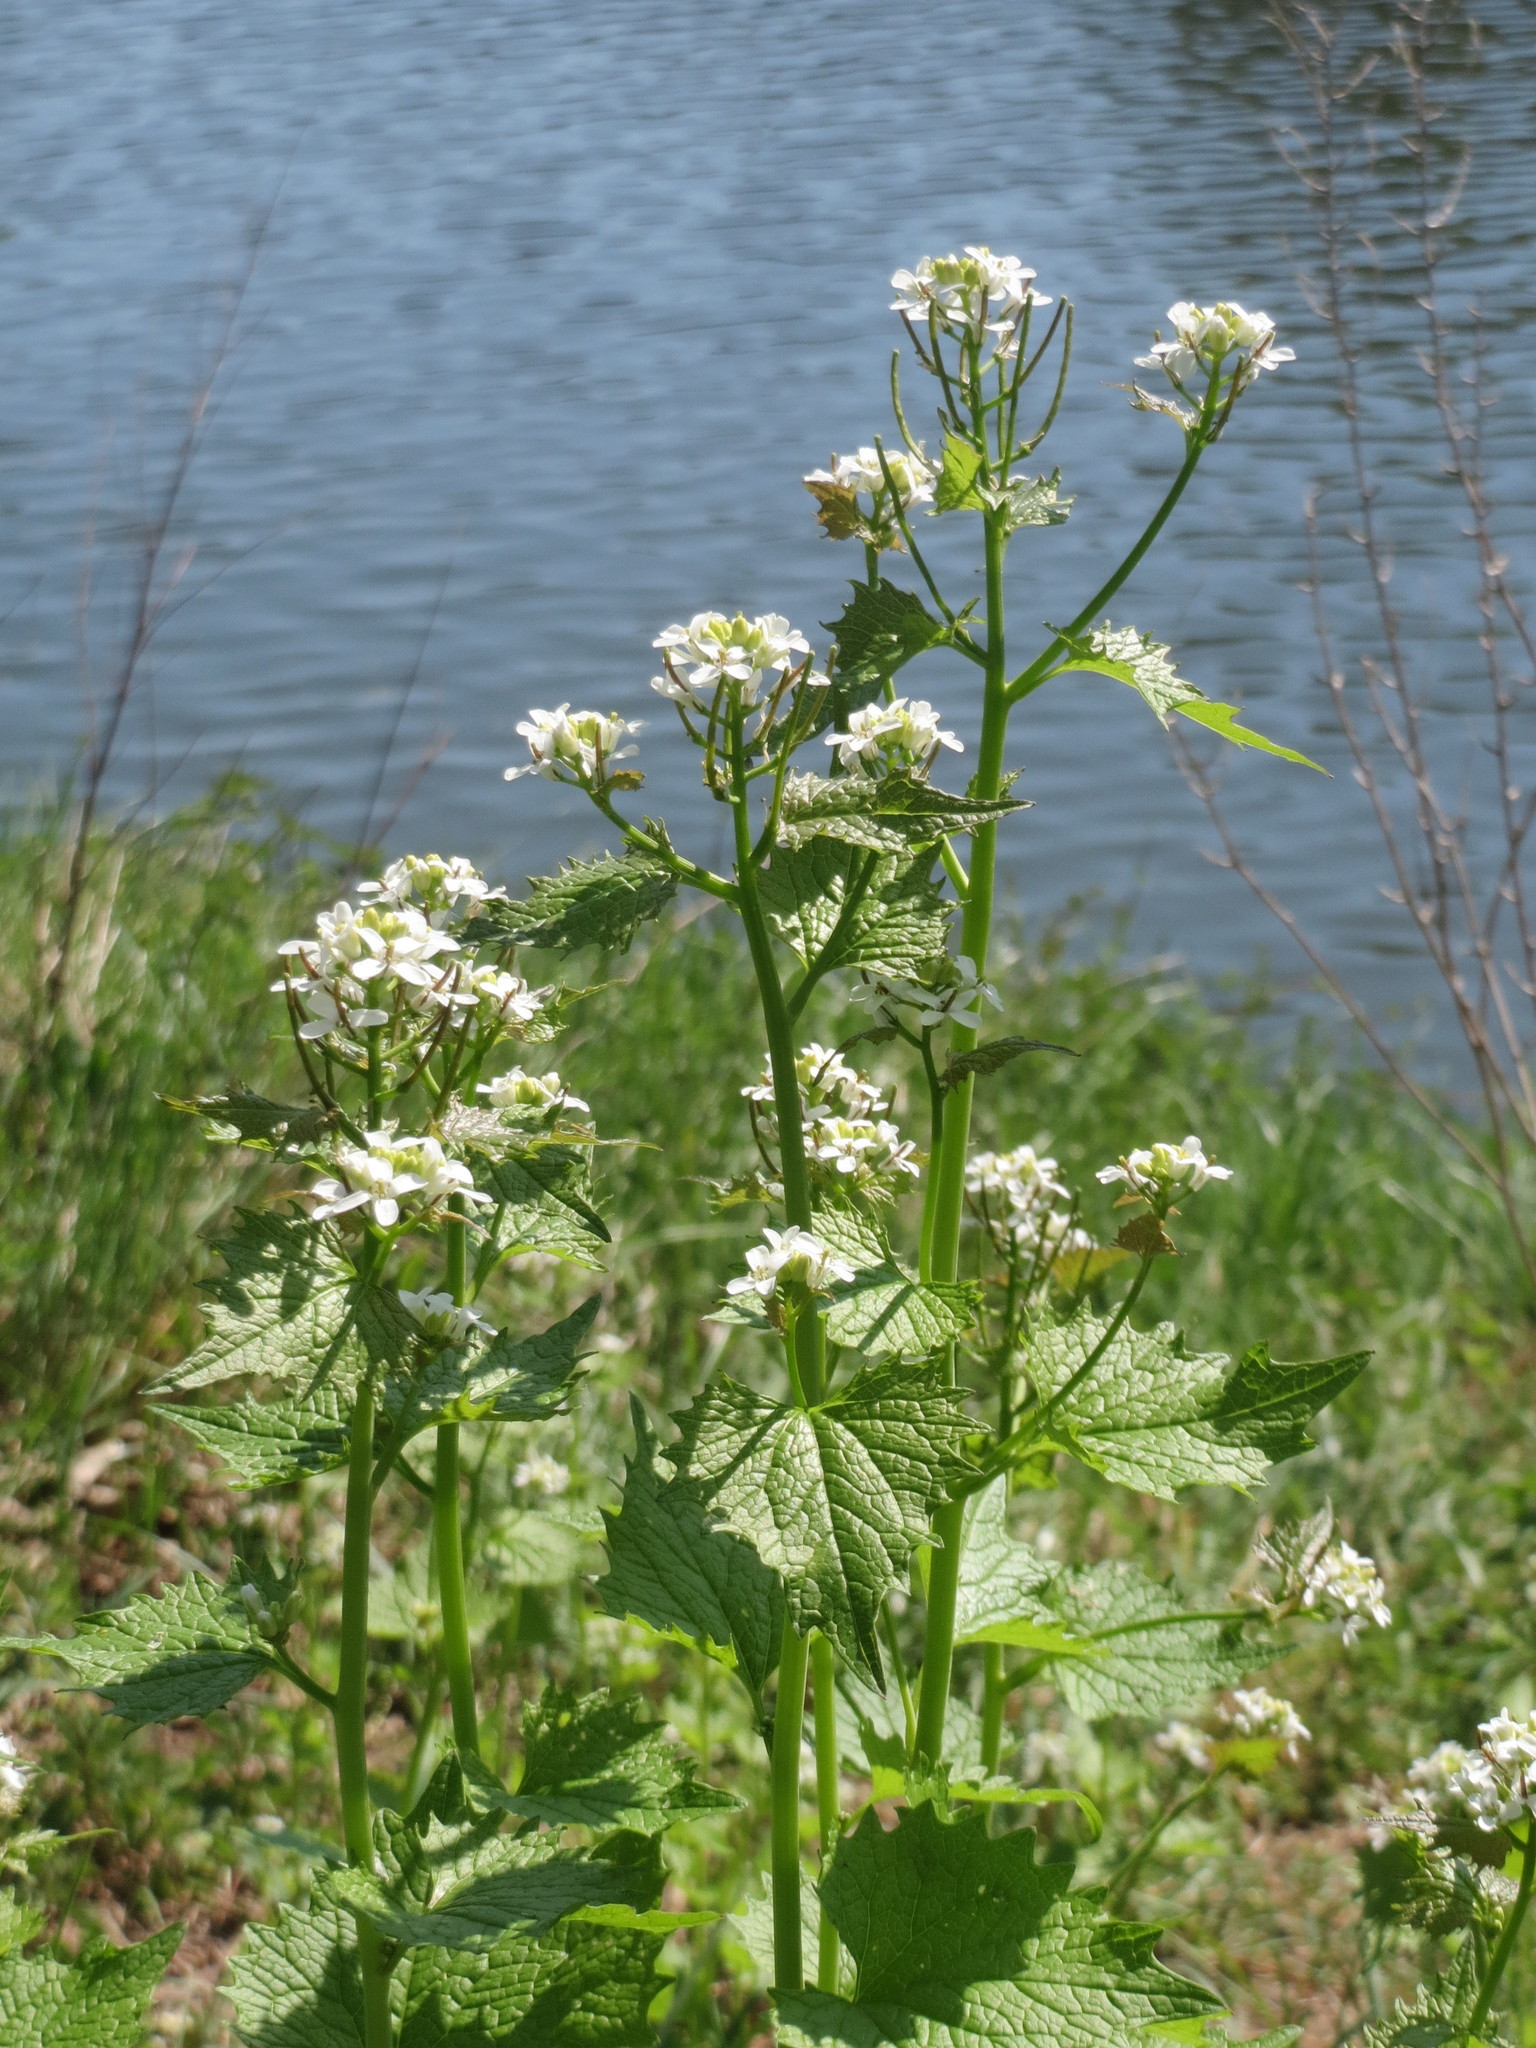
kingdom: Plantae
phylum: Tracheophyta
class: Magnoliopsida
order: Brassicales
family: Brassicaceae
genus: Alliaria
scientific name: Alliaria petiolata
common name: Garlic mustard
